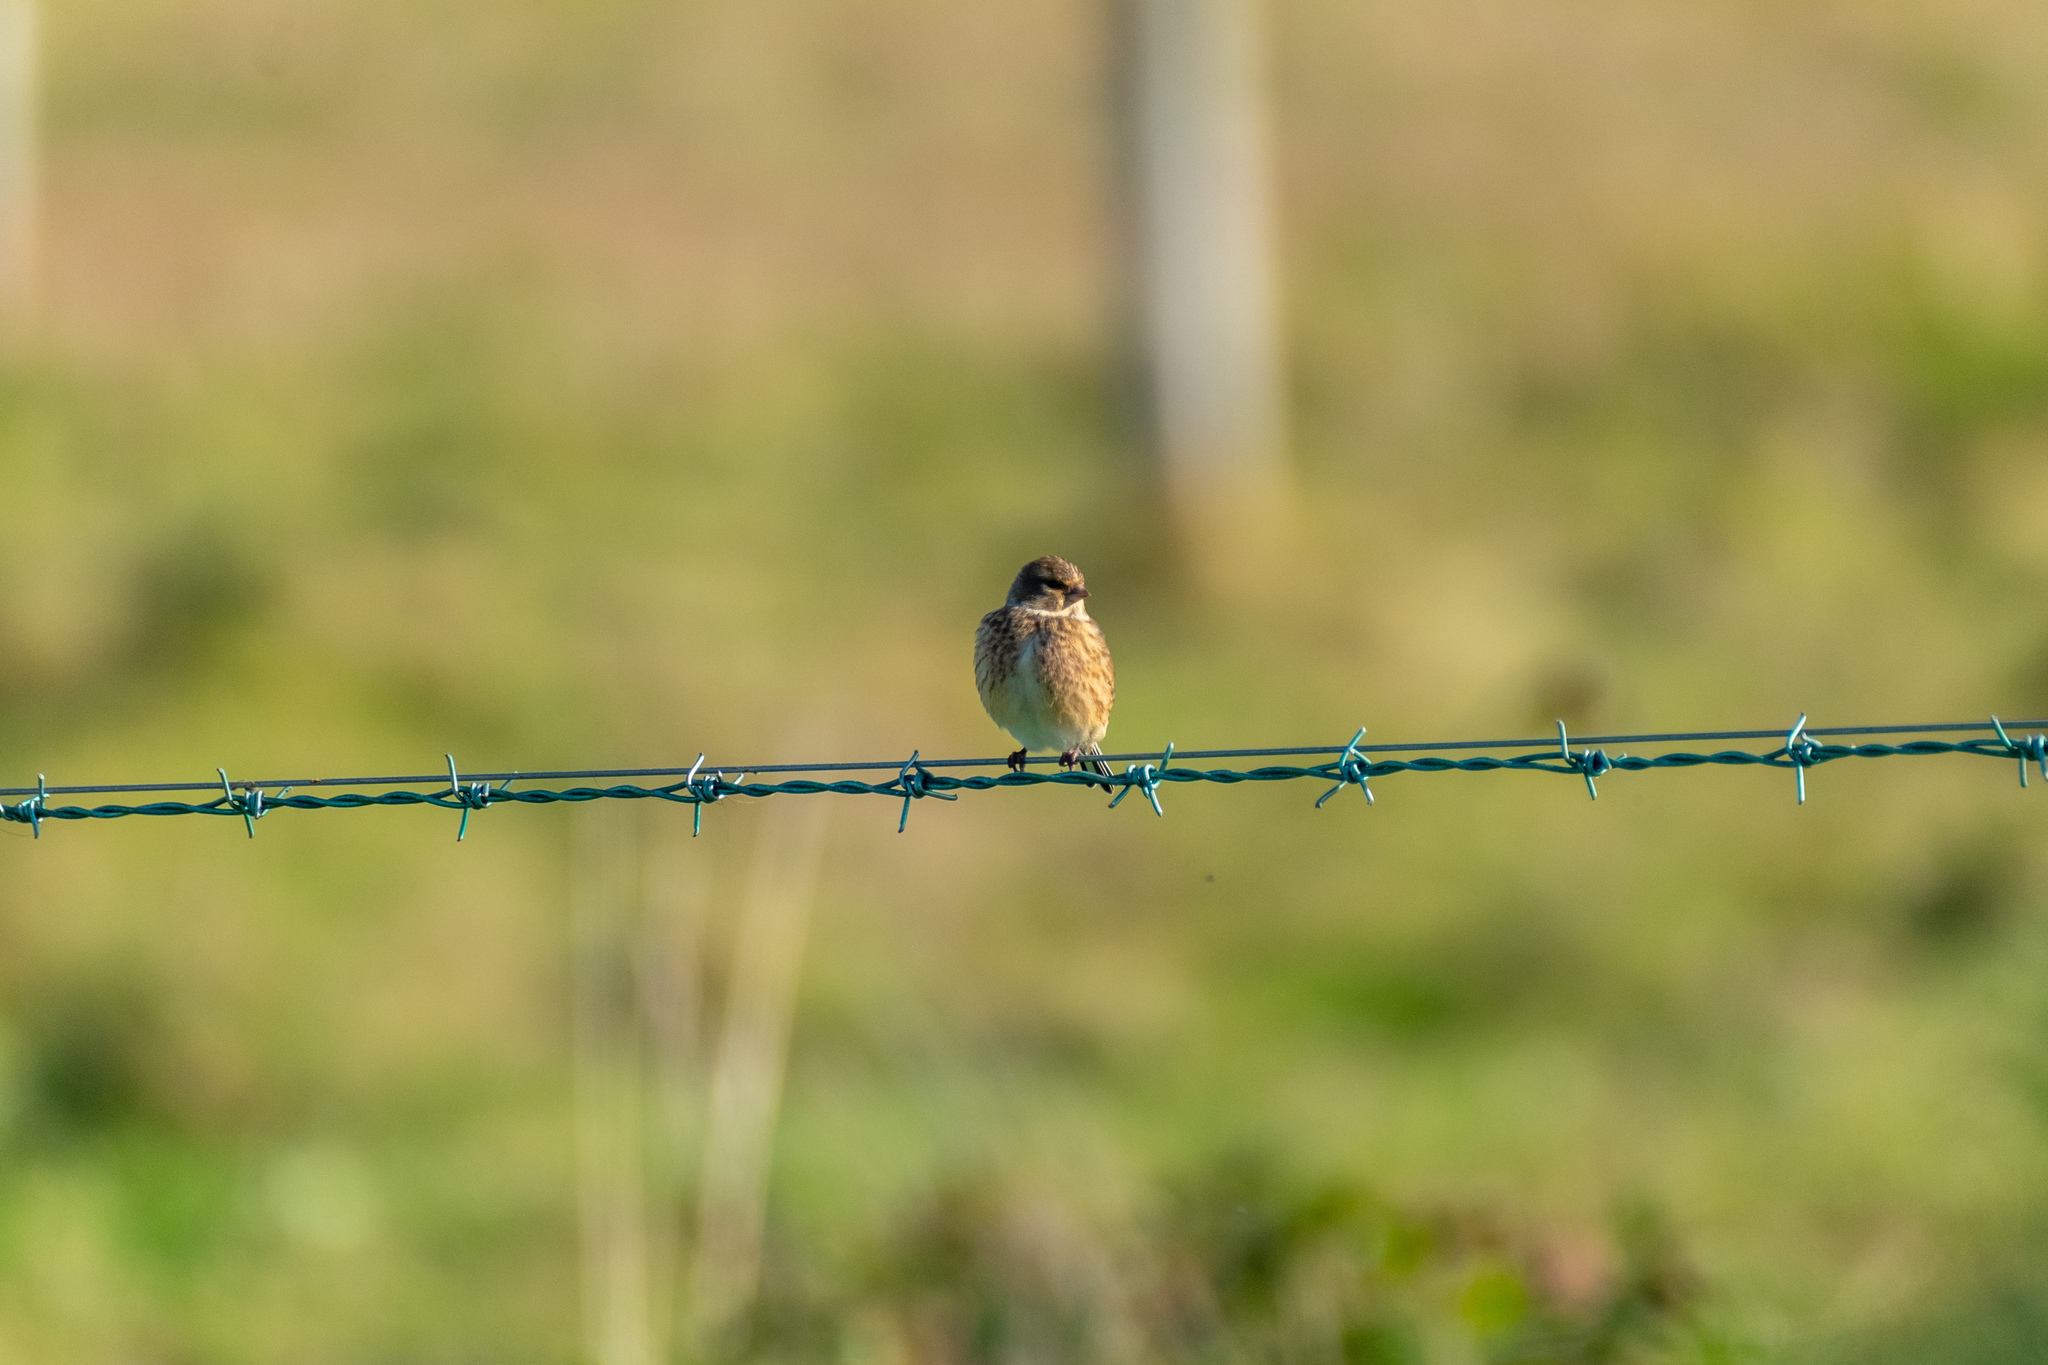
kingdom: Animalia
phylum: Chordata
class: Aves
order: Passeriformes
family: Fringillidae
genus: Linaria
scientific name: Linaria cannabina
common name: Common linnet
